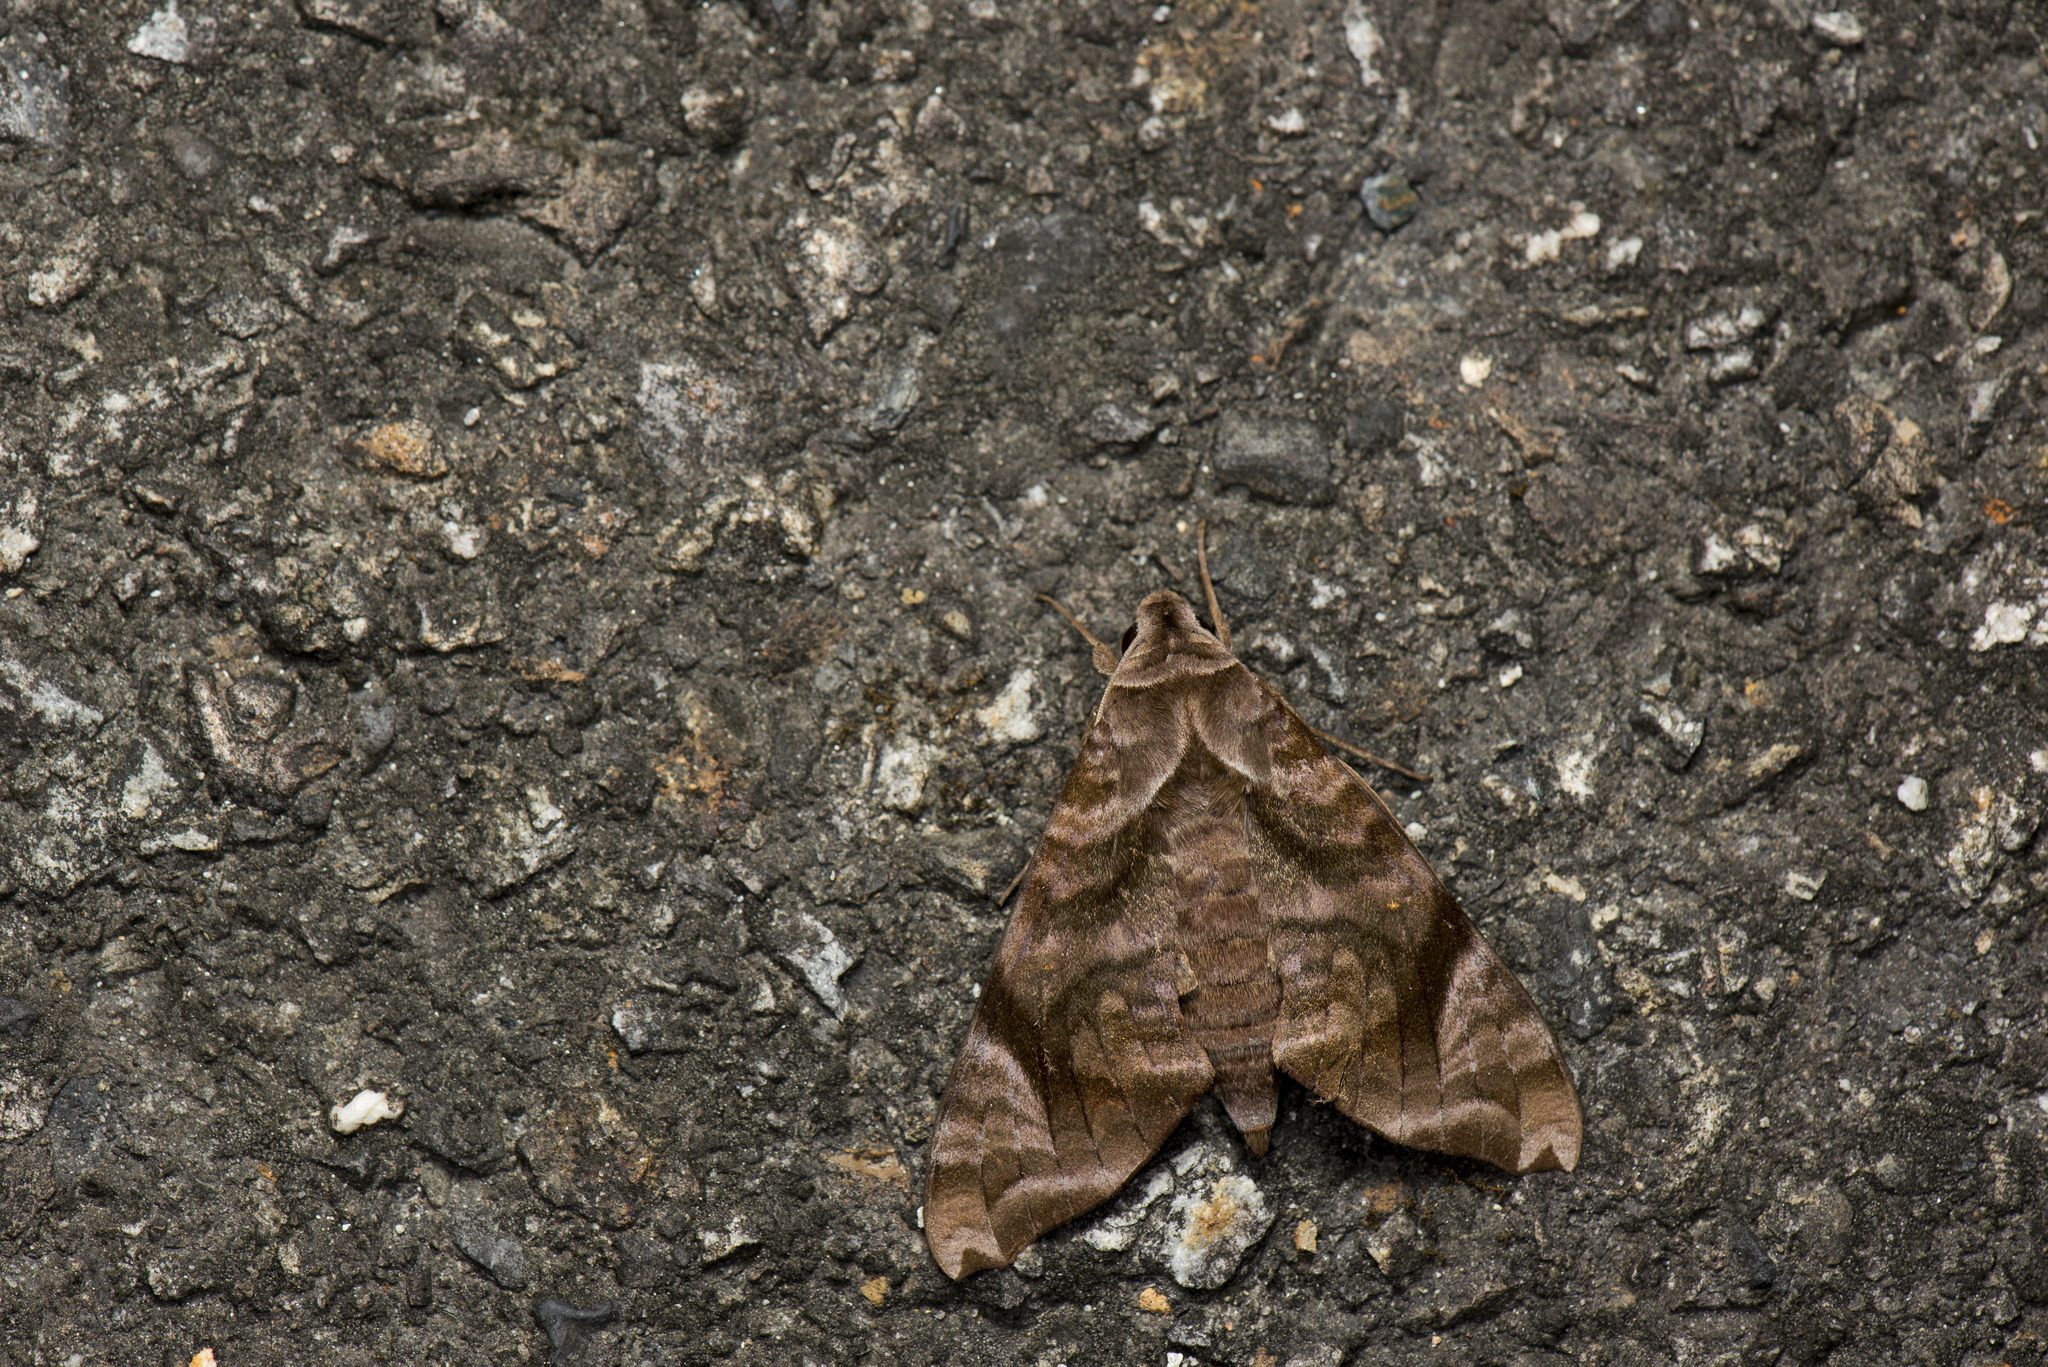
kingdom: Animalia
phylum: Arthropoda
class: Insecta
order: Lepidoptera
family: Sphingidae
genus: Acosmeryx
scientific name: Acosmeryx castanea
